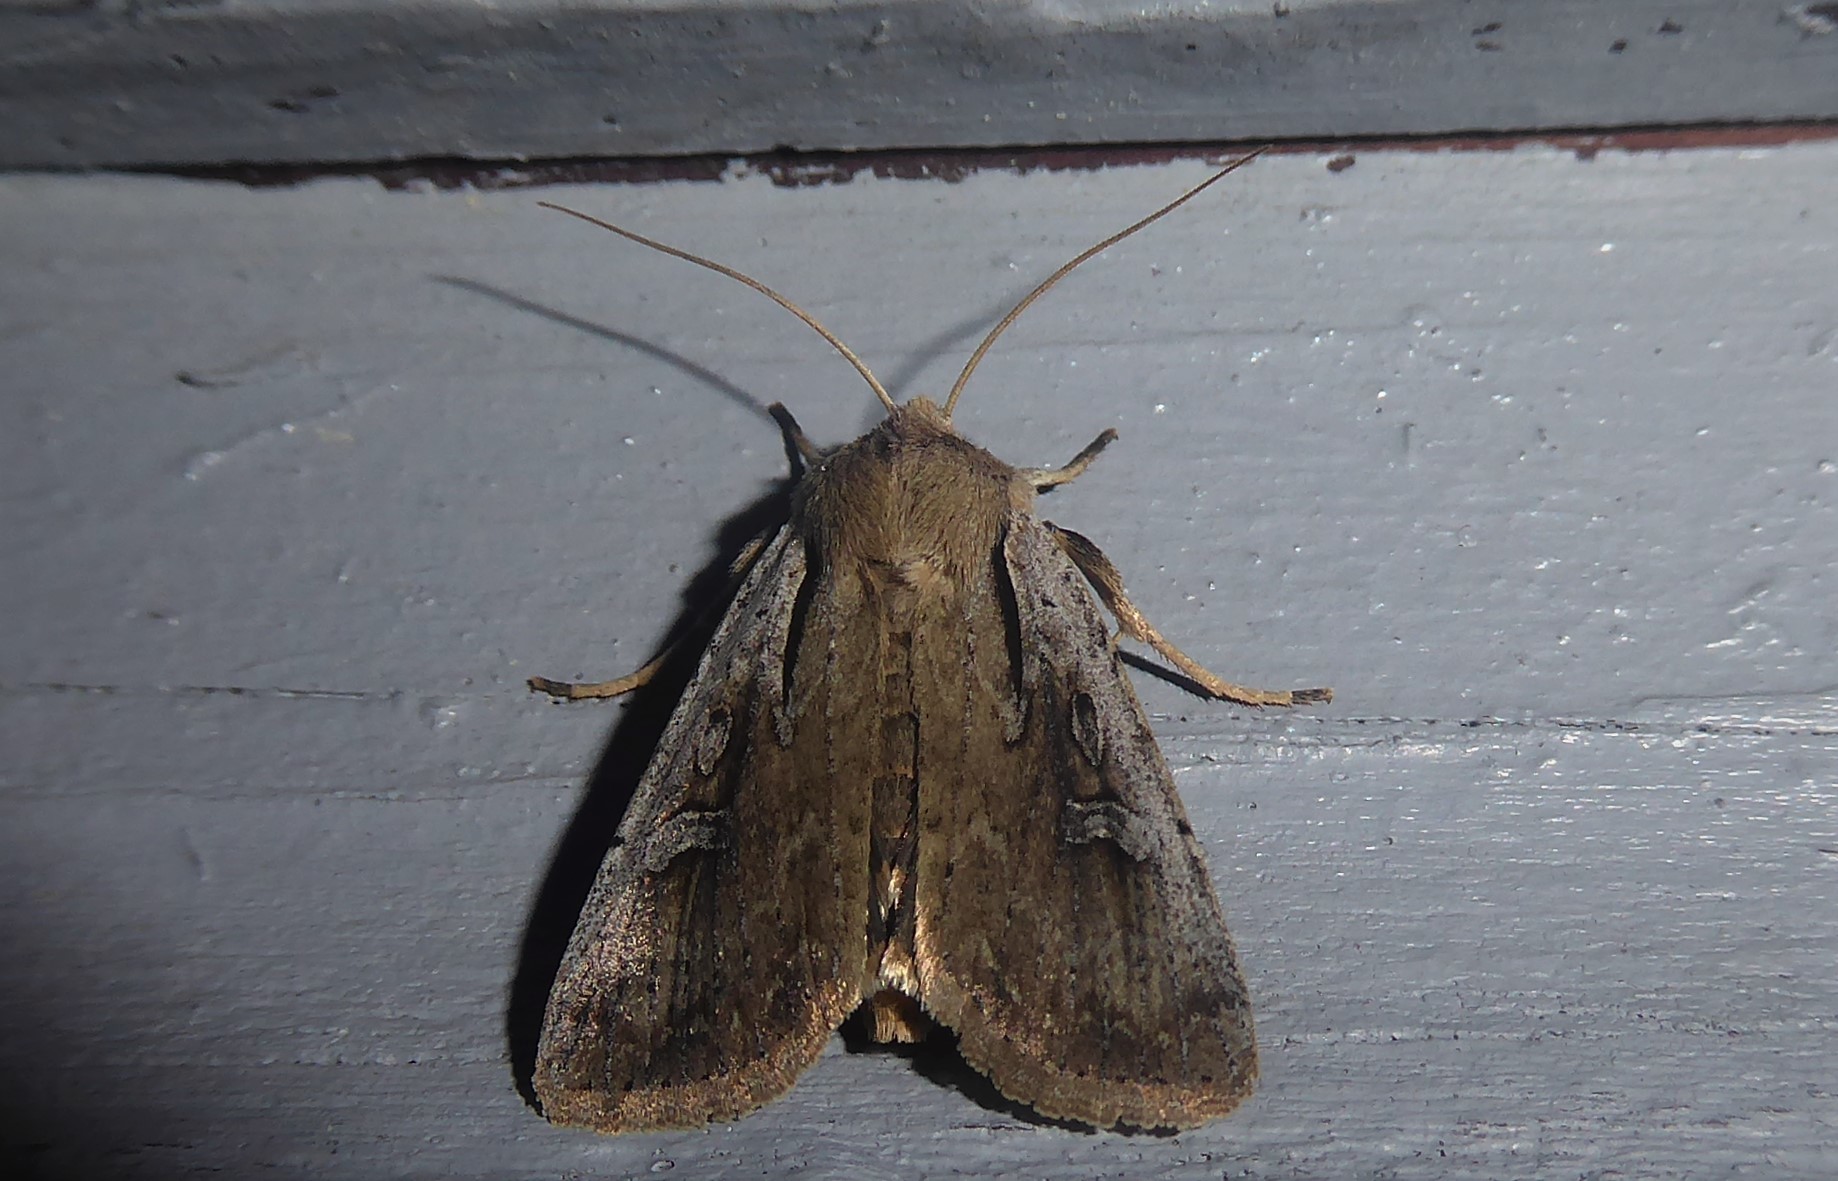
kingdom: Animalia
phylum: Arthropoda
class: Insecta
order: Lepidoptera
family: Noctuidae
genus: Ichneutica
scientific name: Ichneutica atristriga
